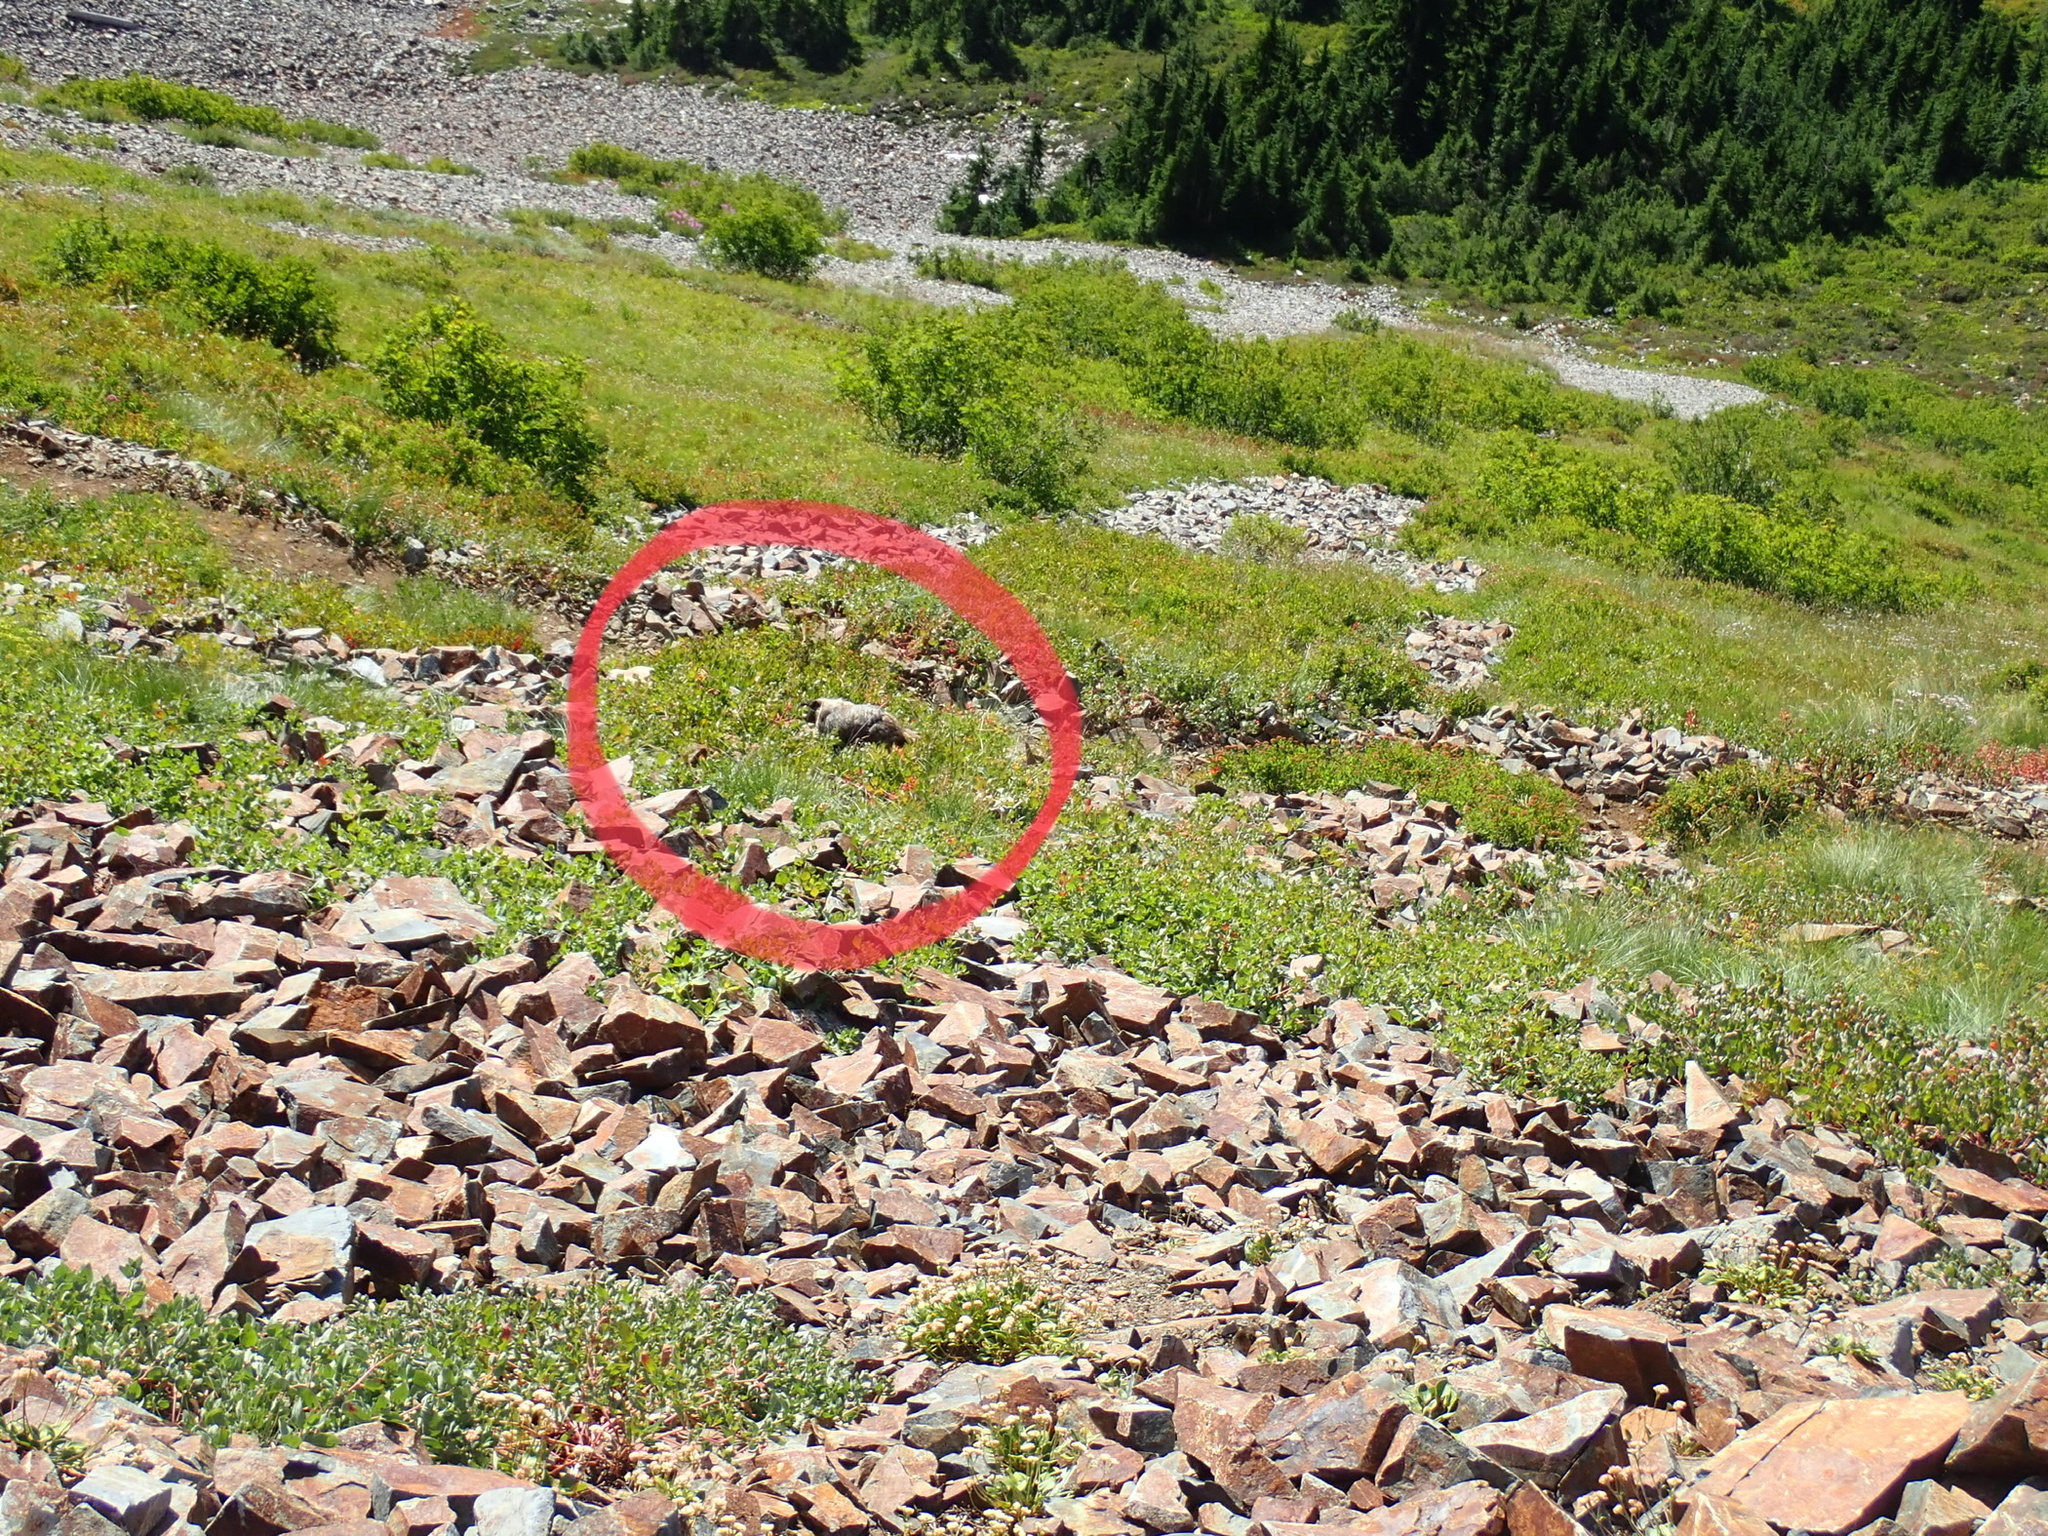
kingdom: Animalia
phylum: Chordata
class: Mammalia
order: Rodentia
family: Sciuridae
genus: Marmota
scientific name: Marmota caligata
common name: Hoary marmot
